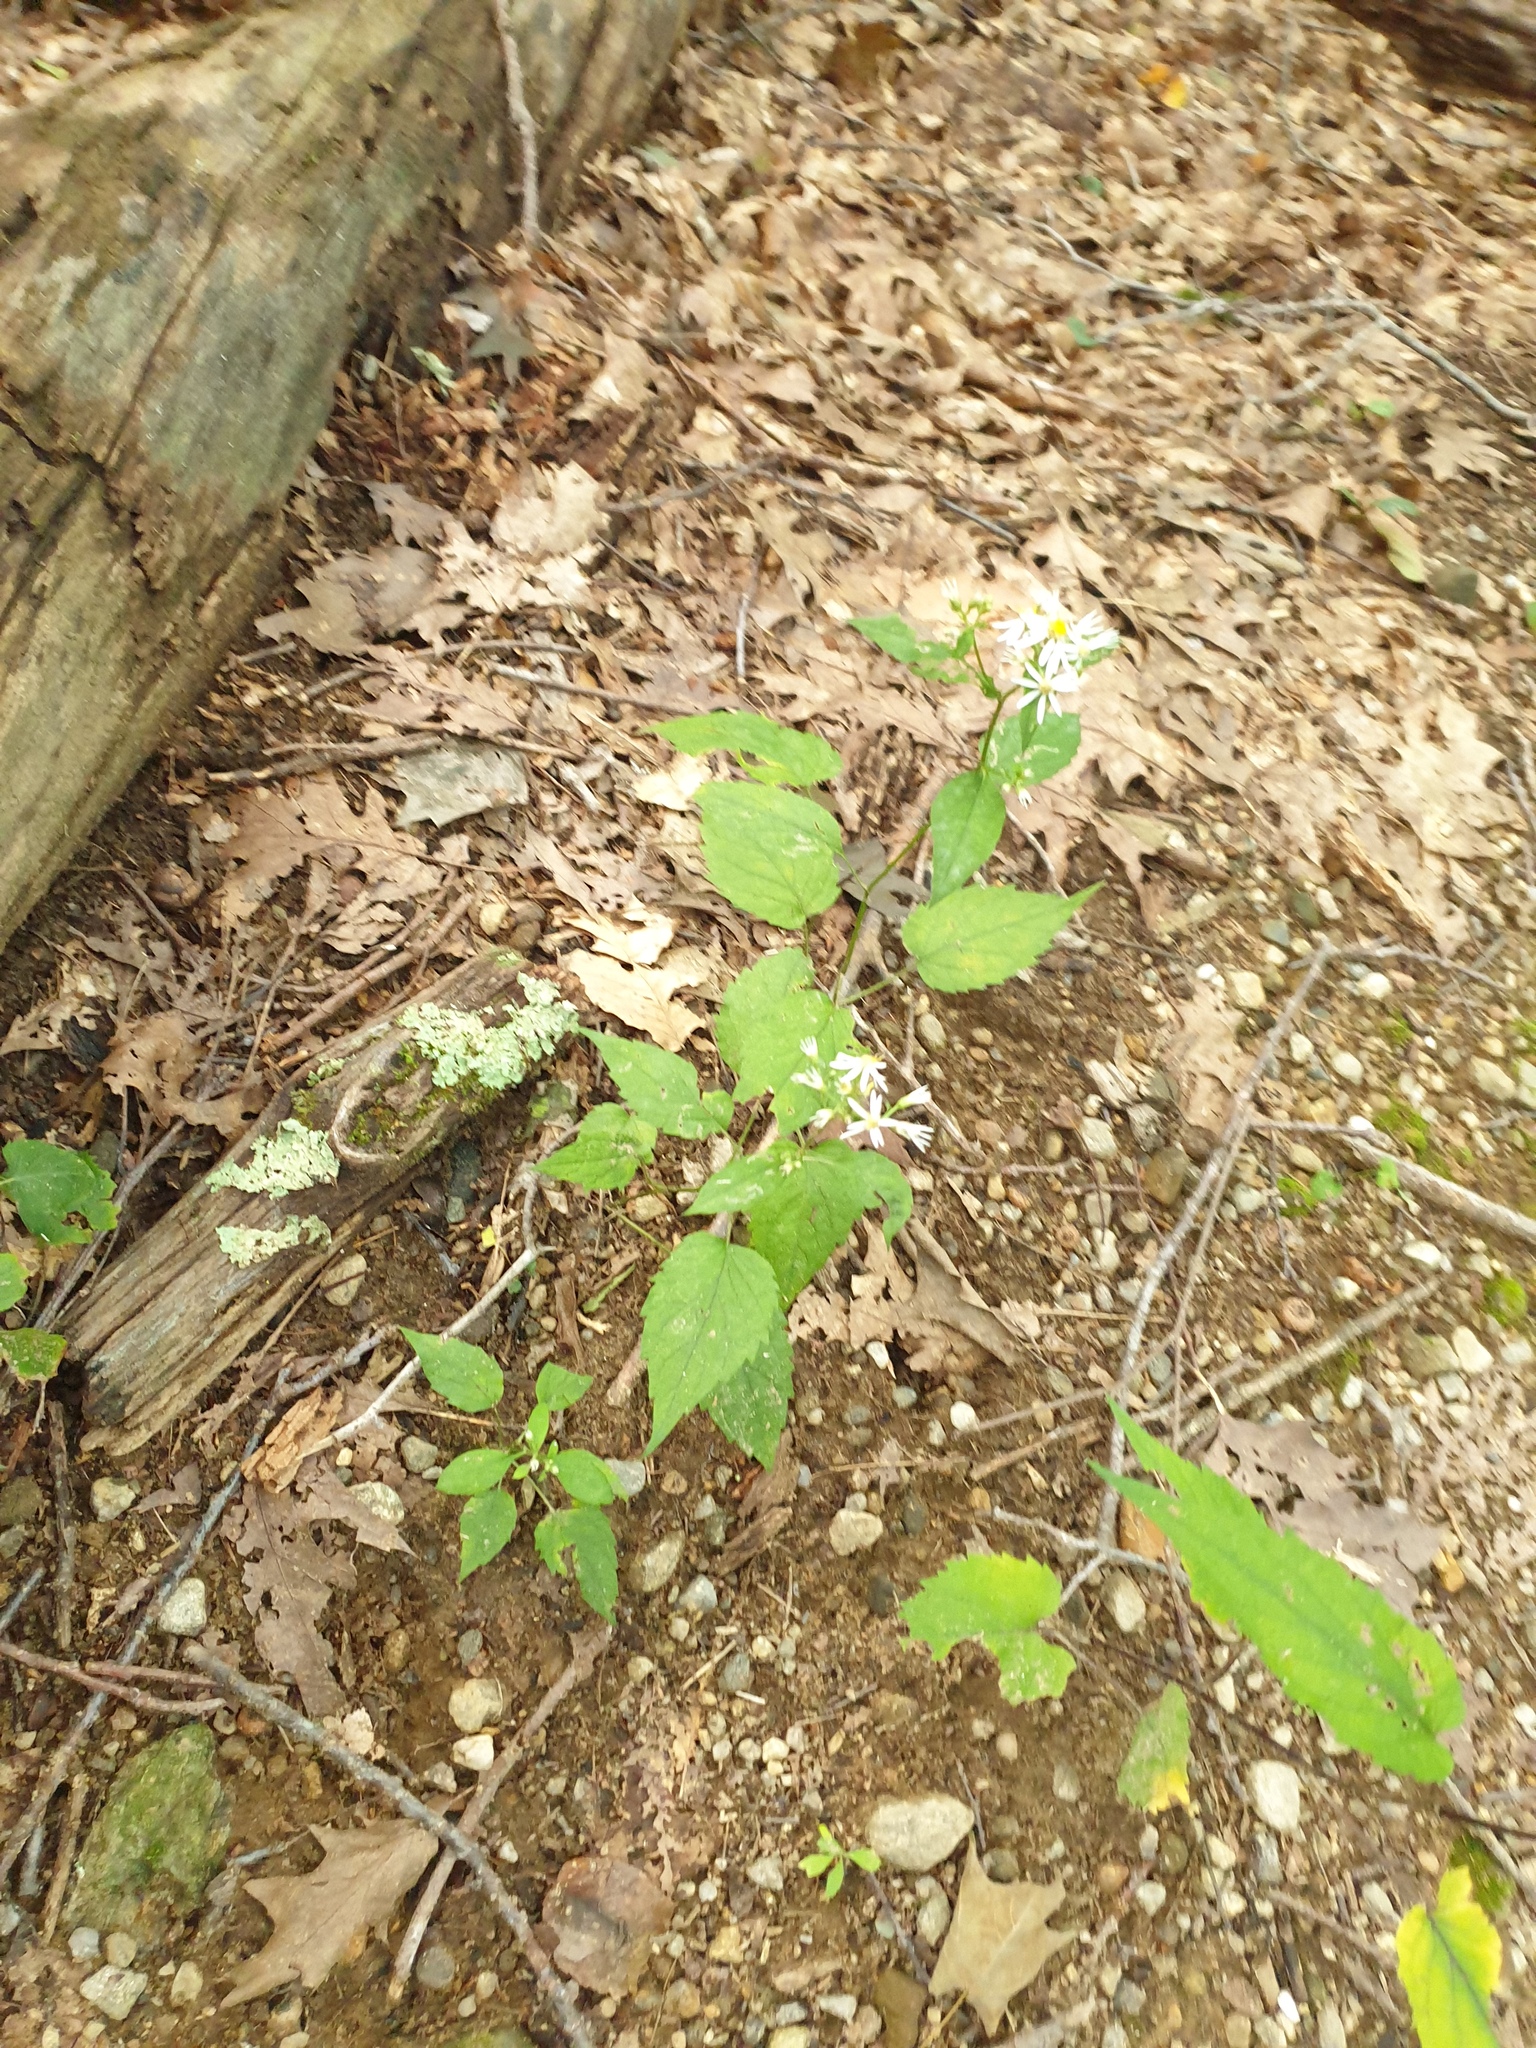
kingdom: Plantae
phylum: Tracheophyta
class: Magnoliopsida
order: Asterales
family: Asteraceae
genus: Eurybia
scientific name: Eurybia divaricata
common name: White wood aster
